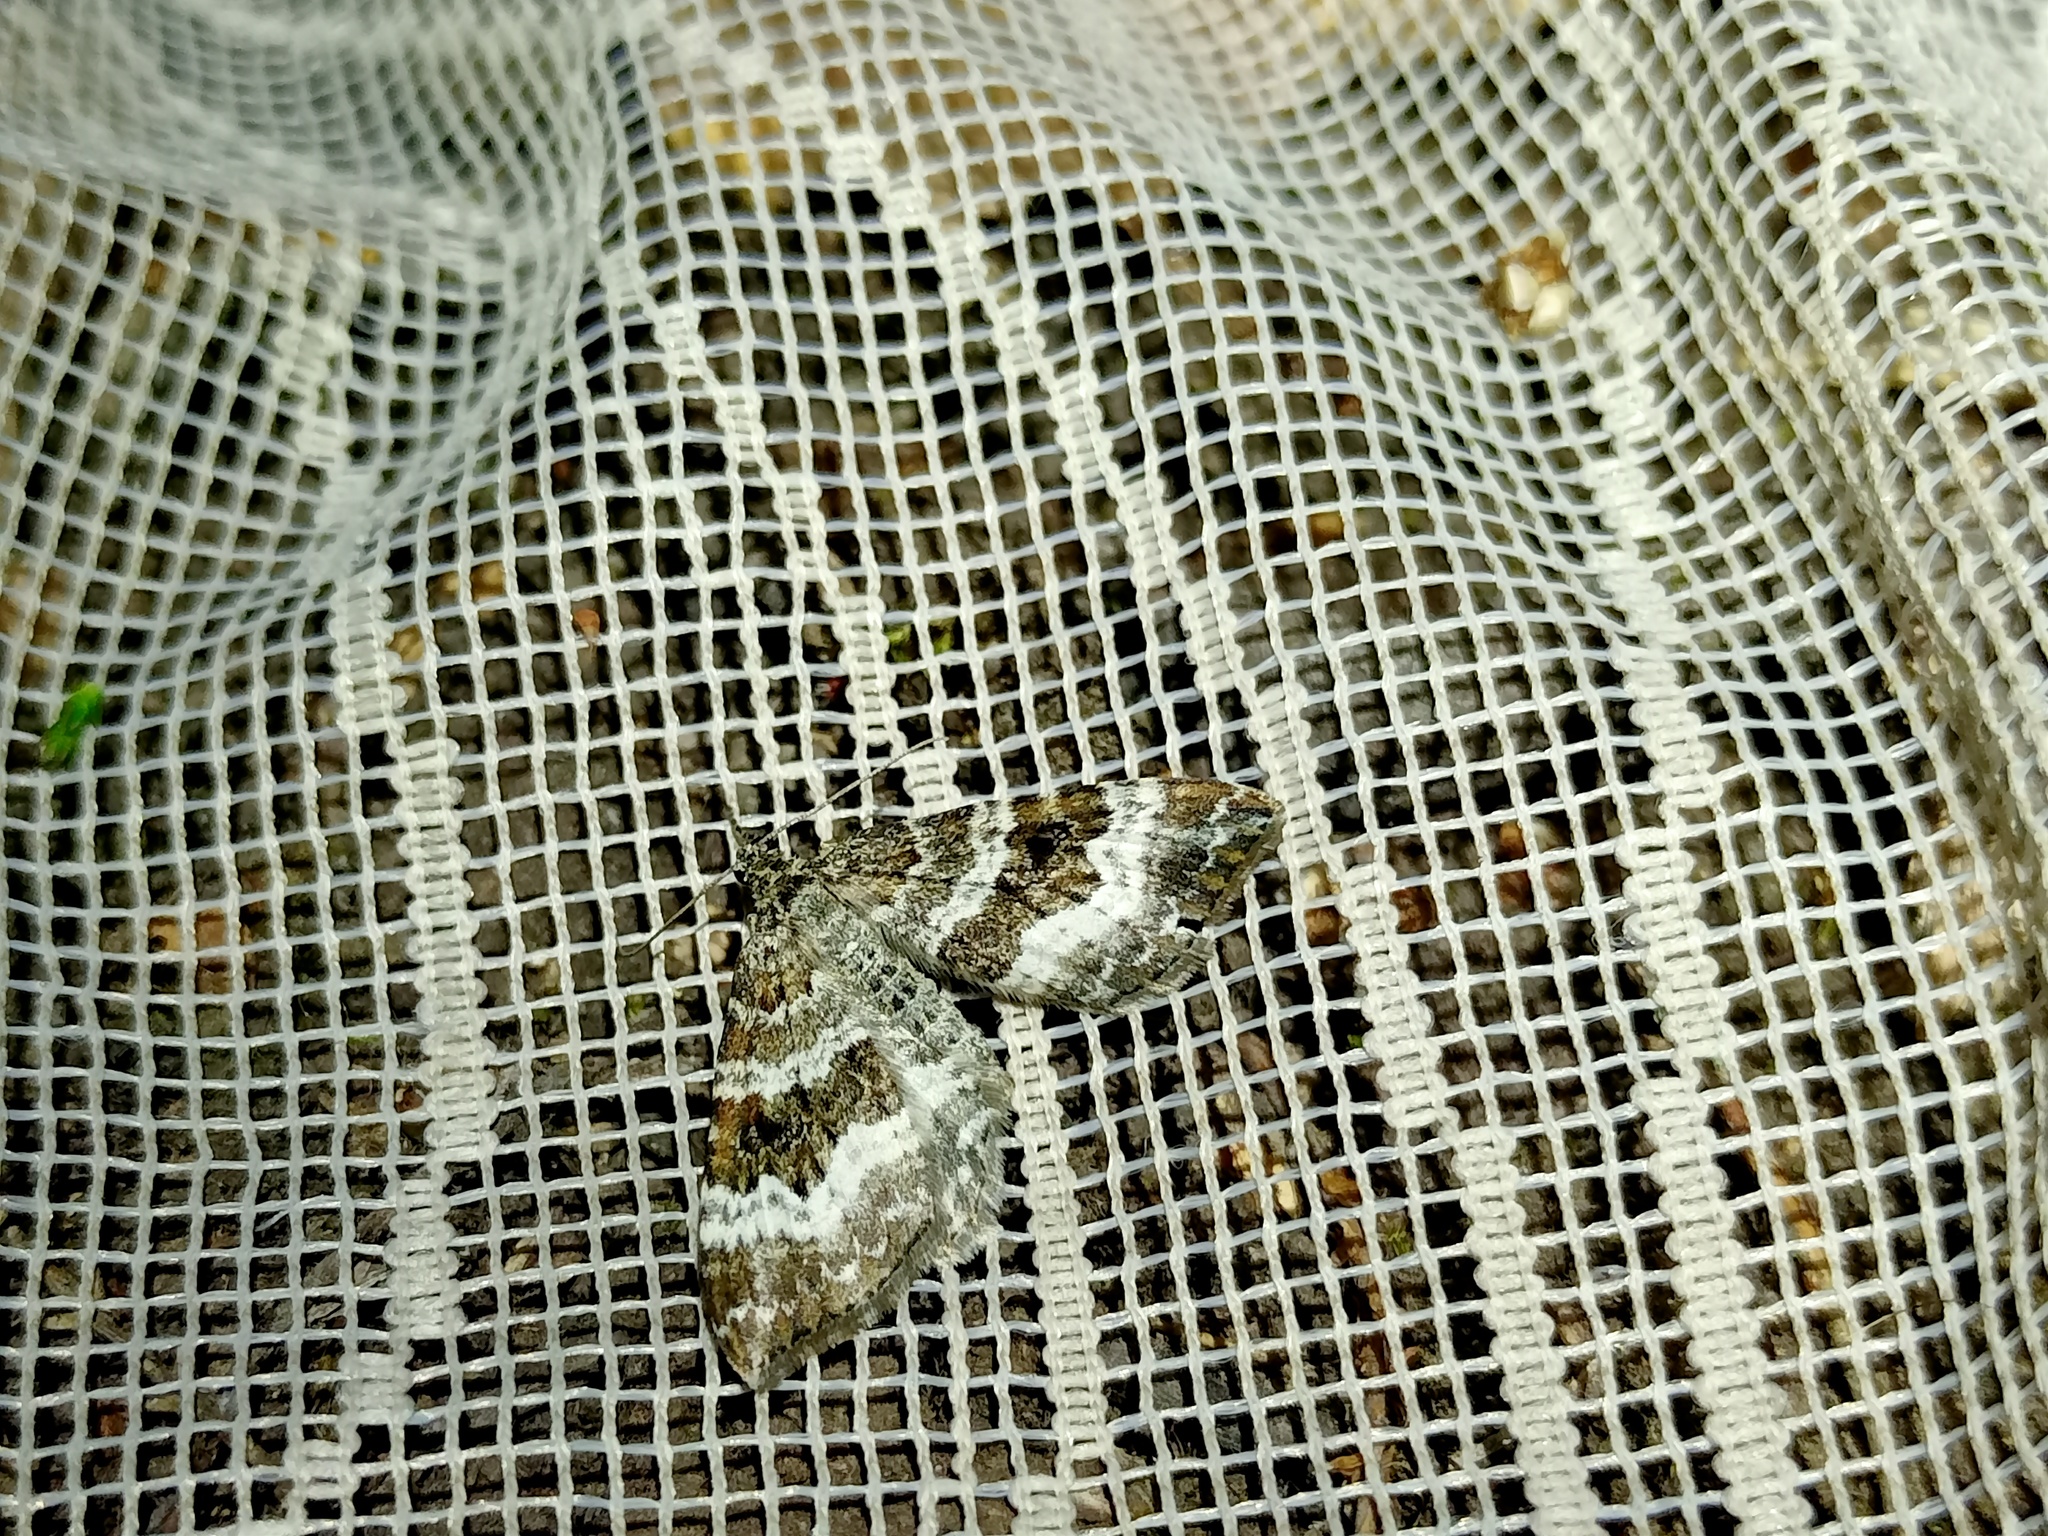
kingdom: Animalia
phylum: Arthropoda
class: Insecta
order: Lepidoptera
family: Geometridae
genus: Epirrhoe
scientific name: Epirrhoe alternata
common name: Common carpet
